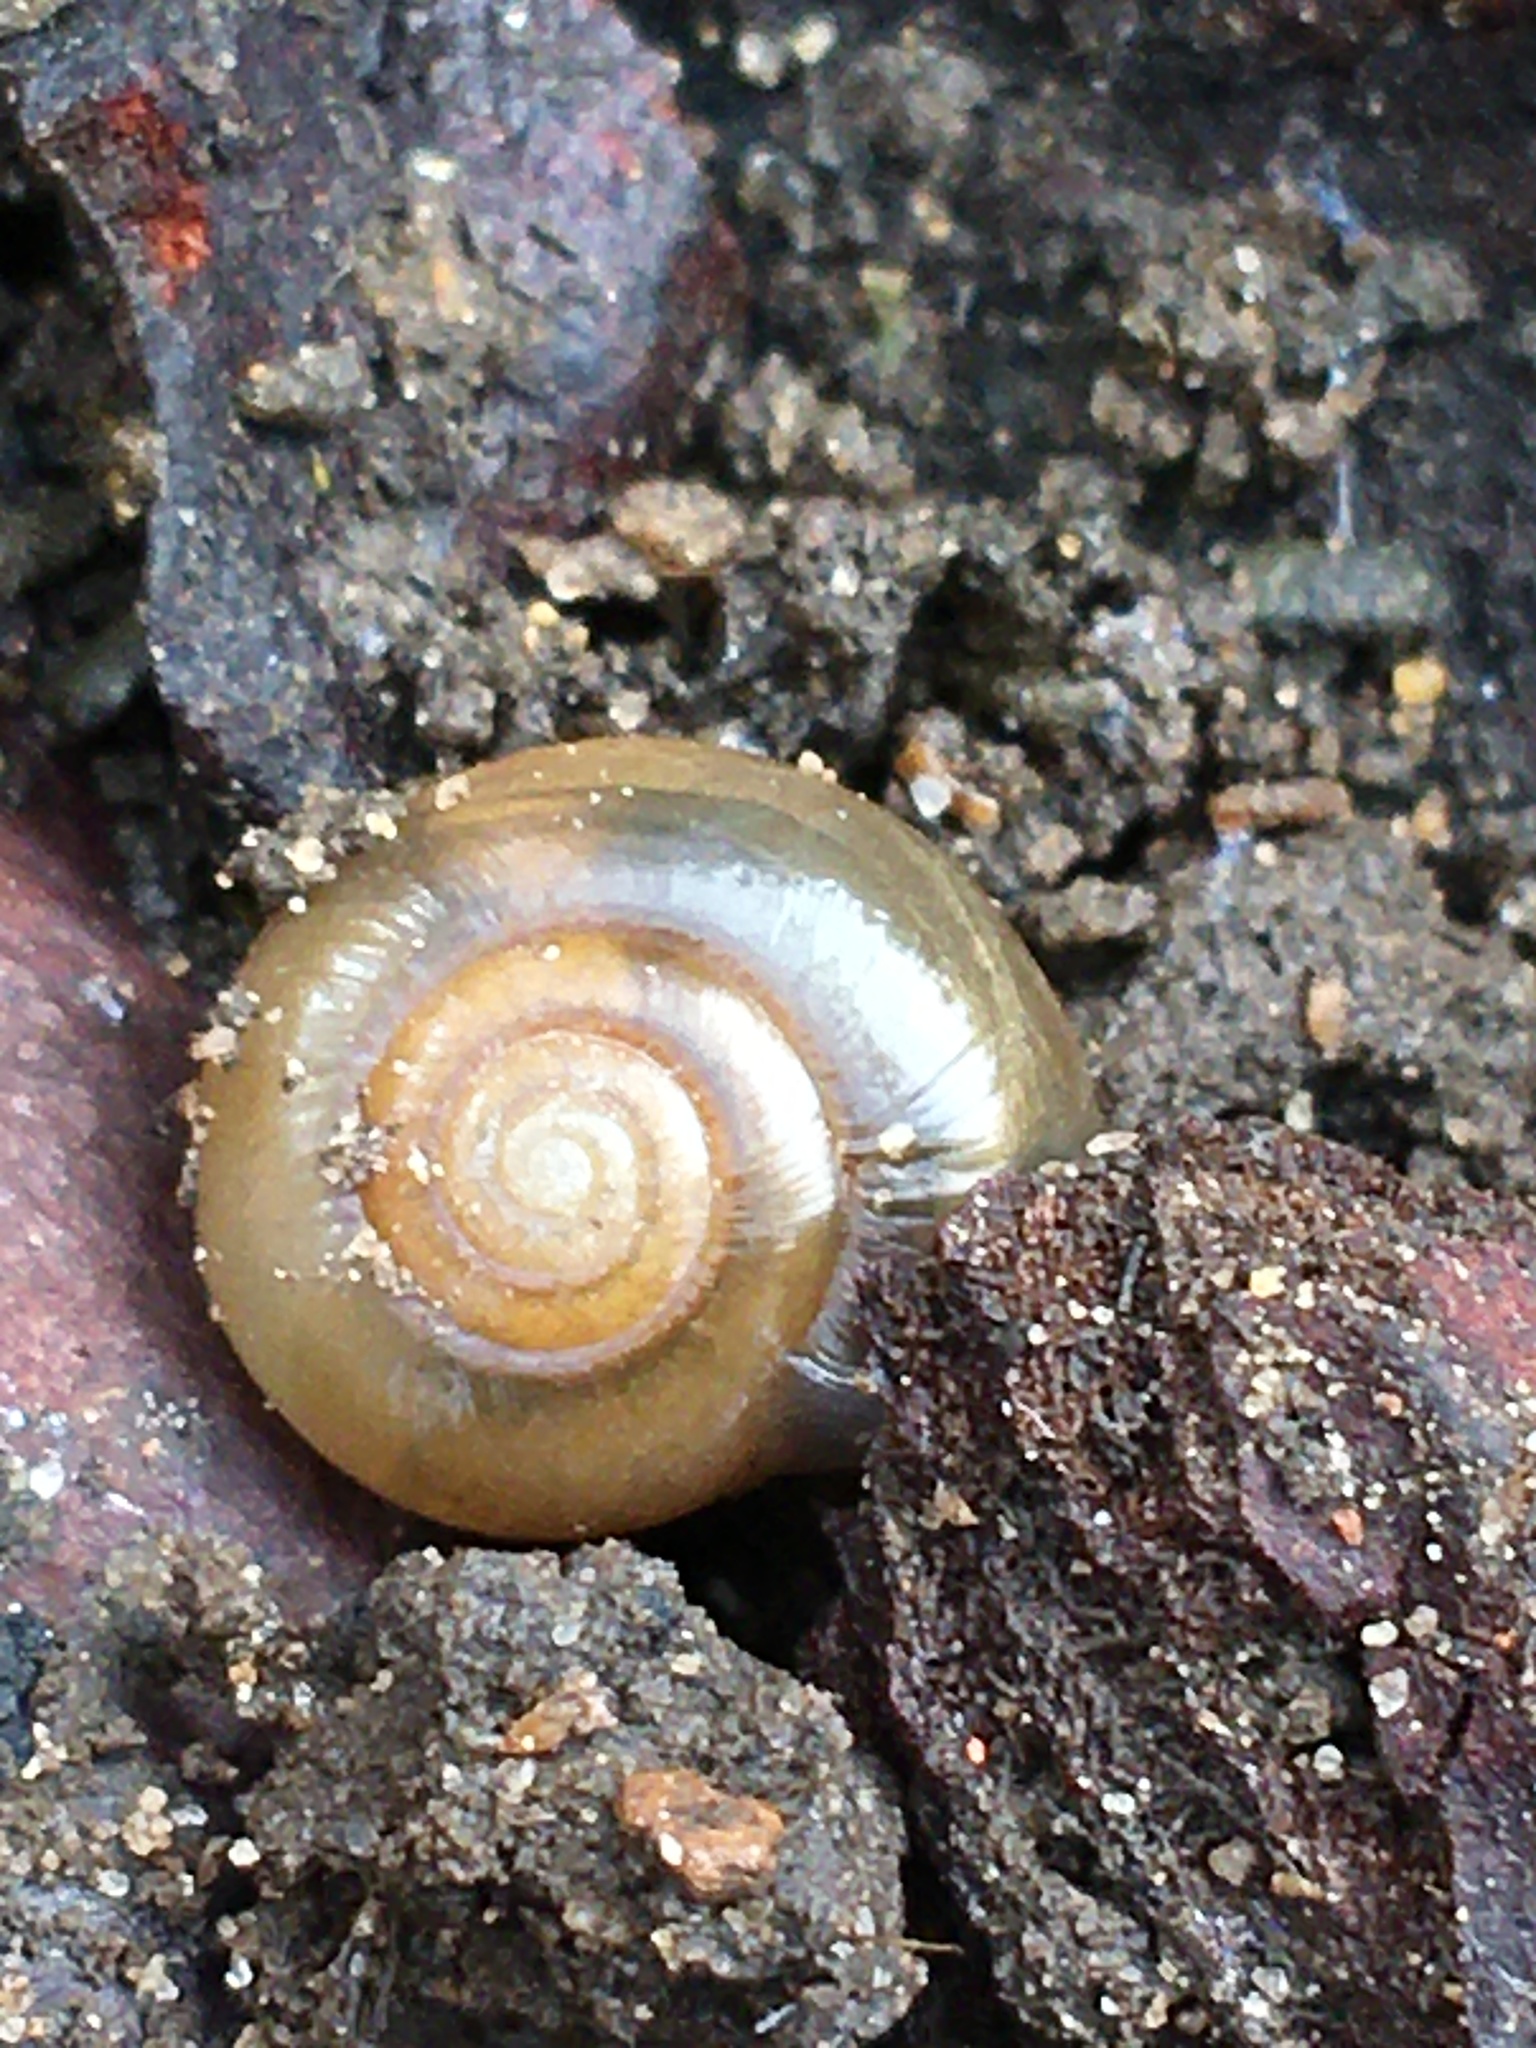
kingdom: Animalia
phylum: Mollusca
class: Gastropoda
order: Stylommatophora
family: Oxychilidae
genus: Oxychilus
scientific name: Oxychilus draparnaudi
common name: Draparnaud's glass snail
